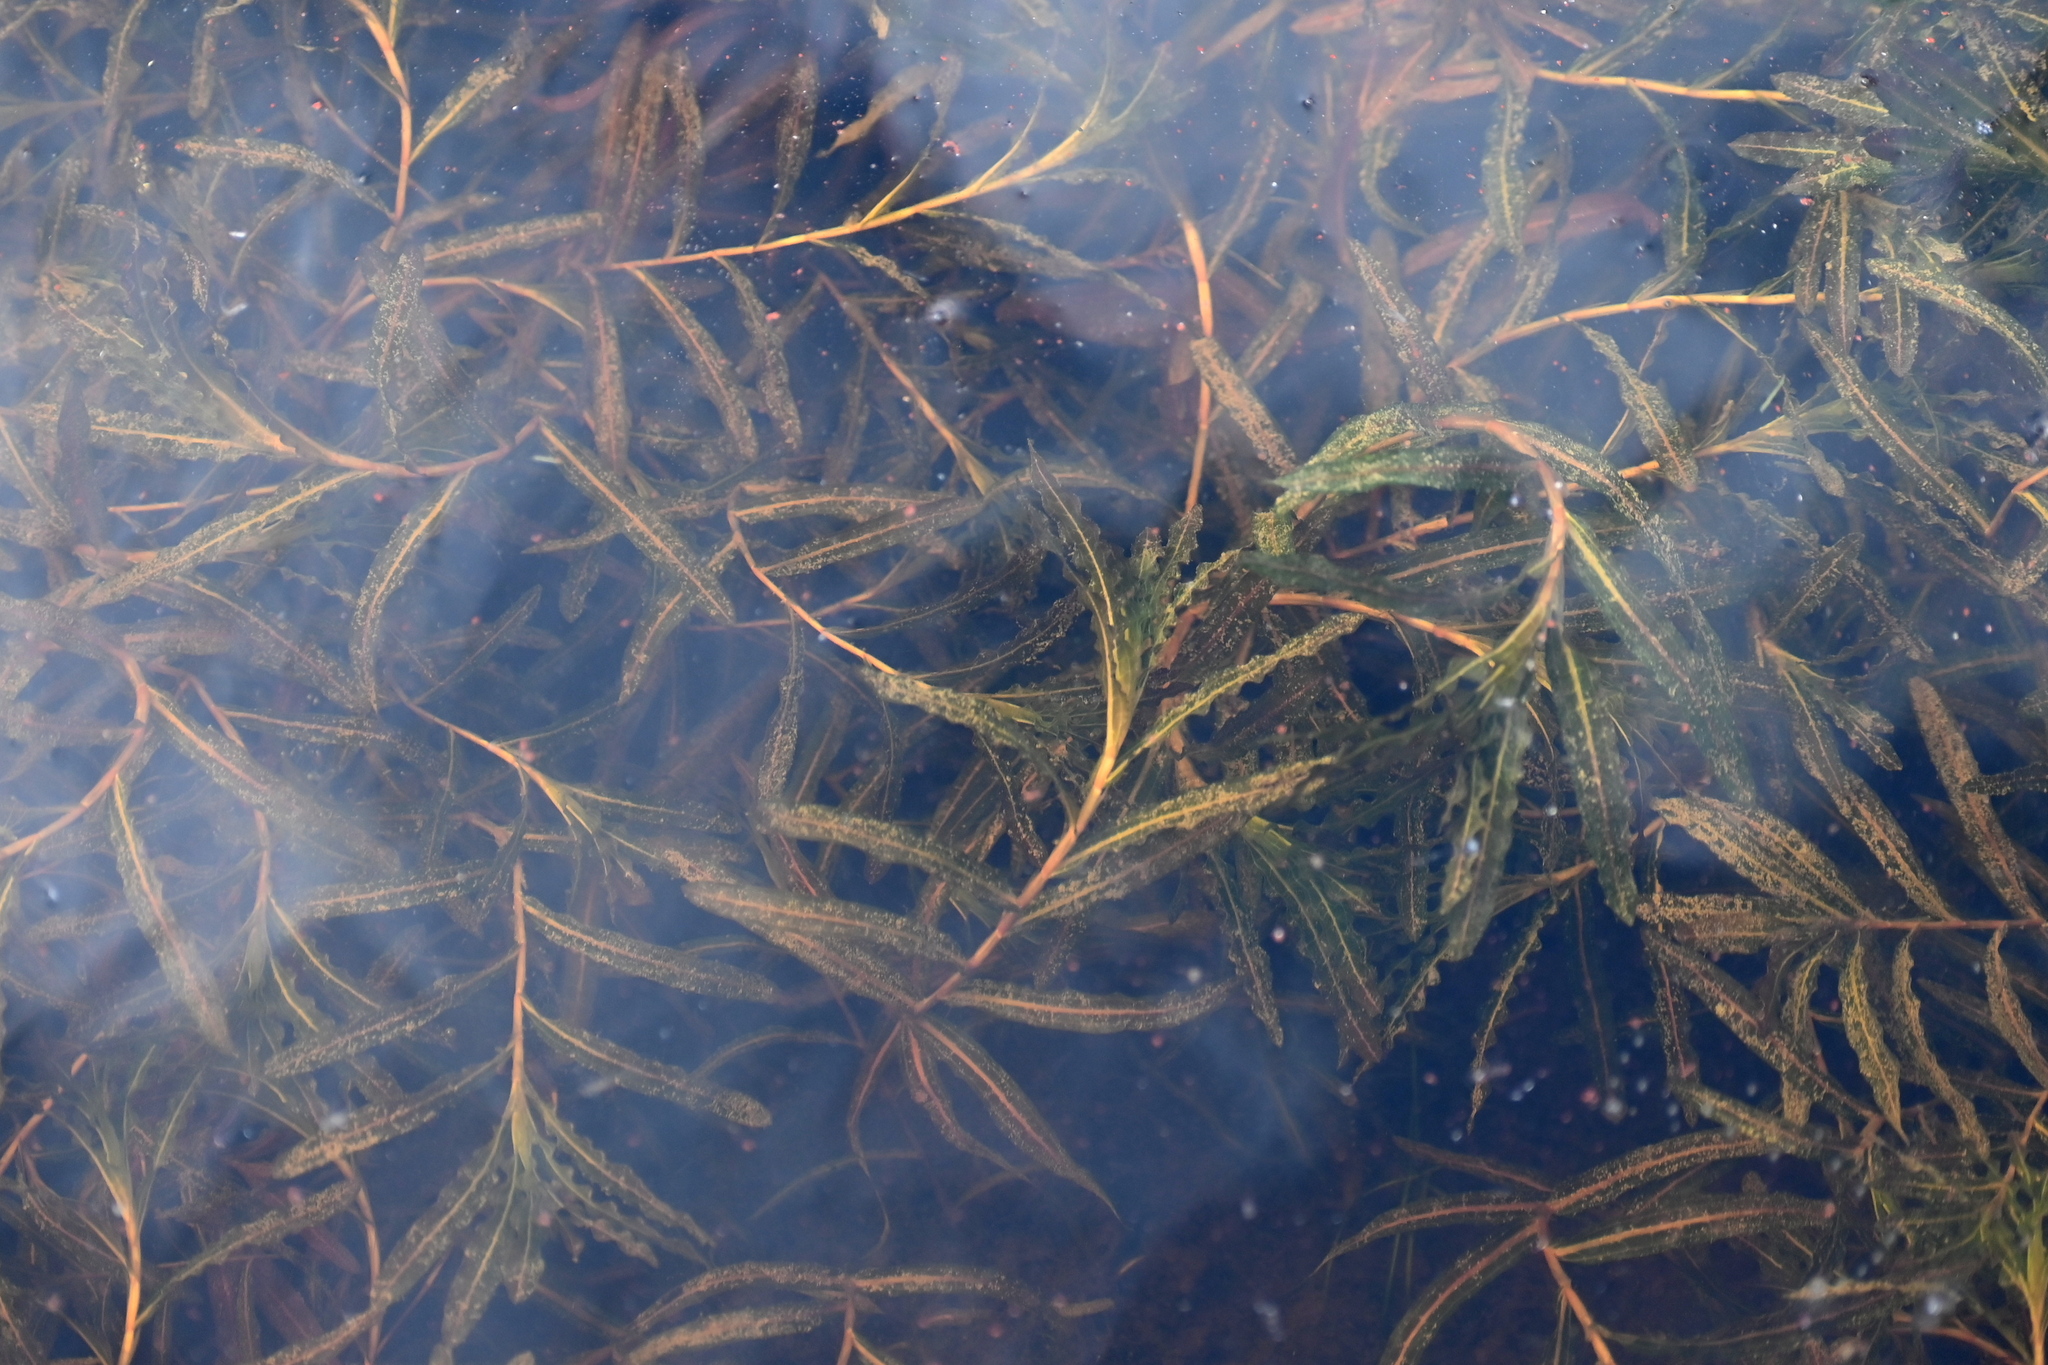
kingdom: Plantae
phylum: Tracheophyta
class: Liliopsida
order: Alismatales
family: Potamogetonaceae
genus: Potamogeton
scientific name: Potamogeton crispus
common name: Curled pondweed
